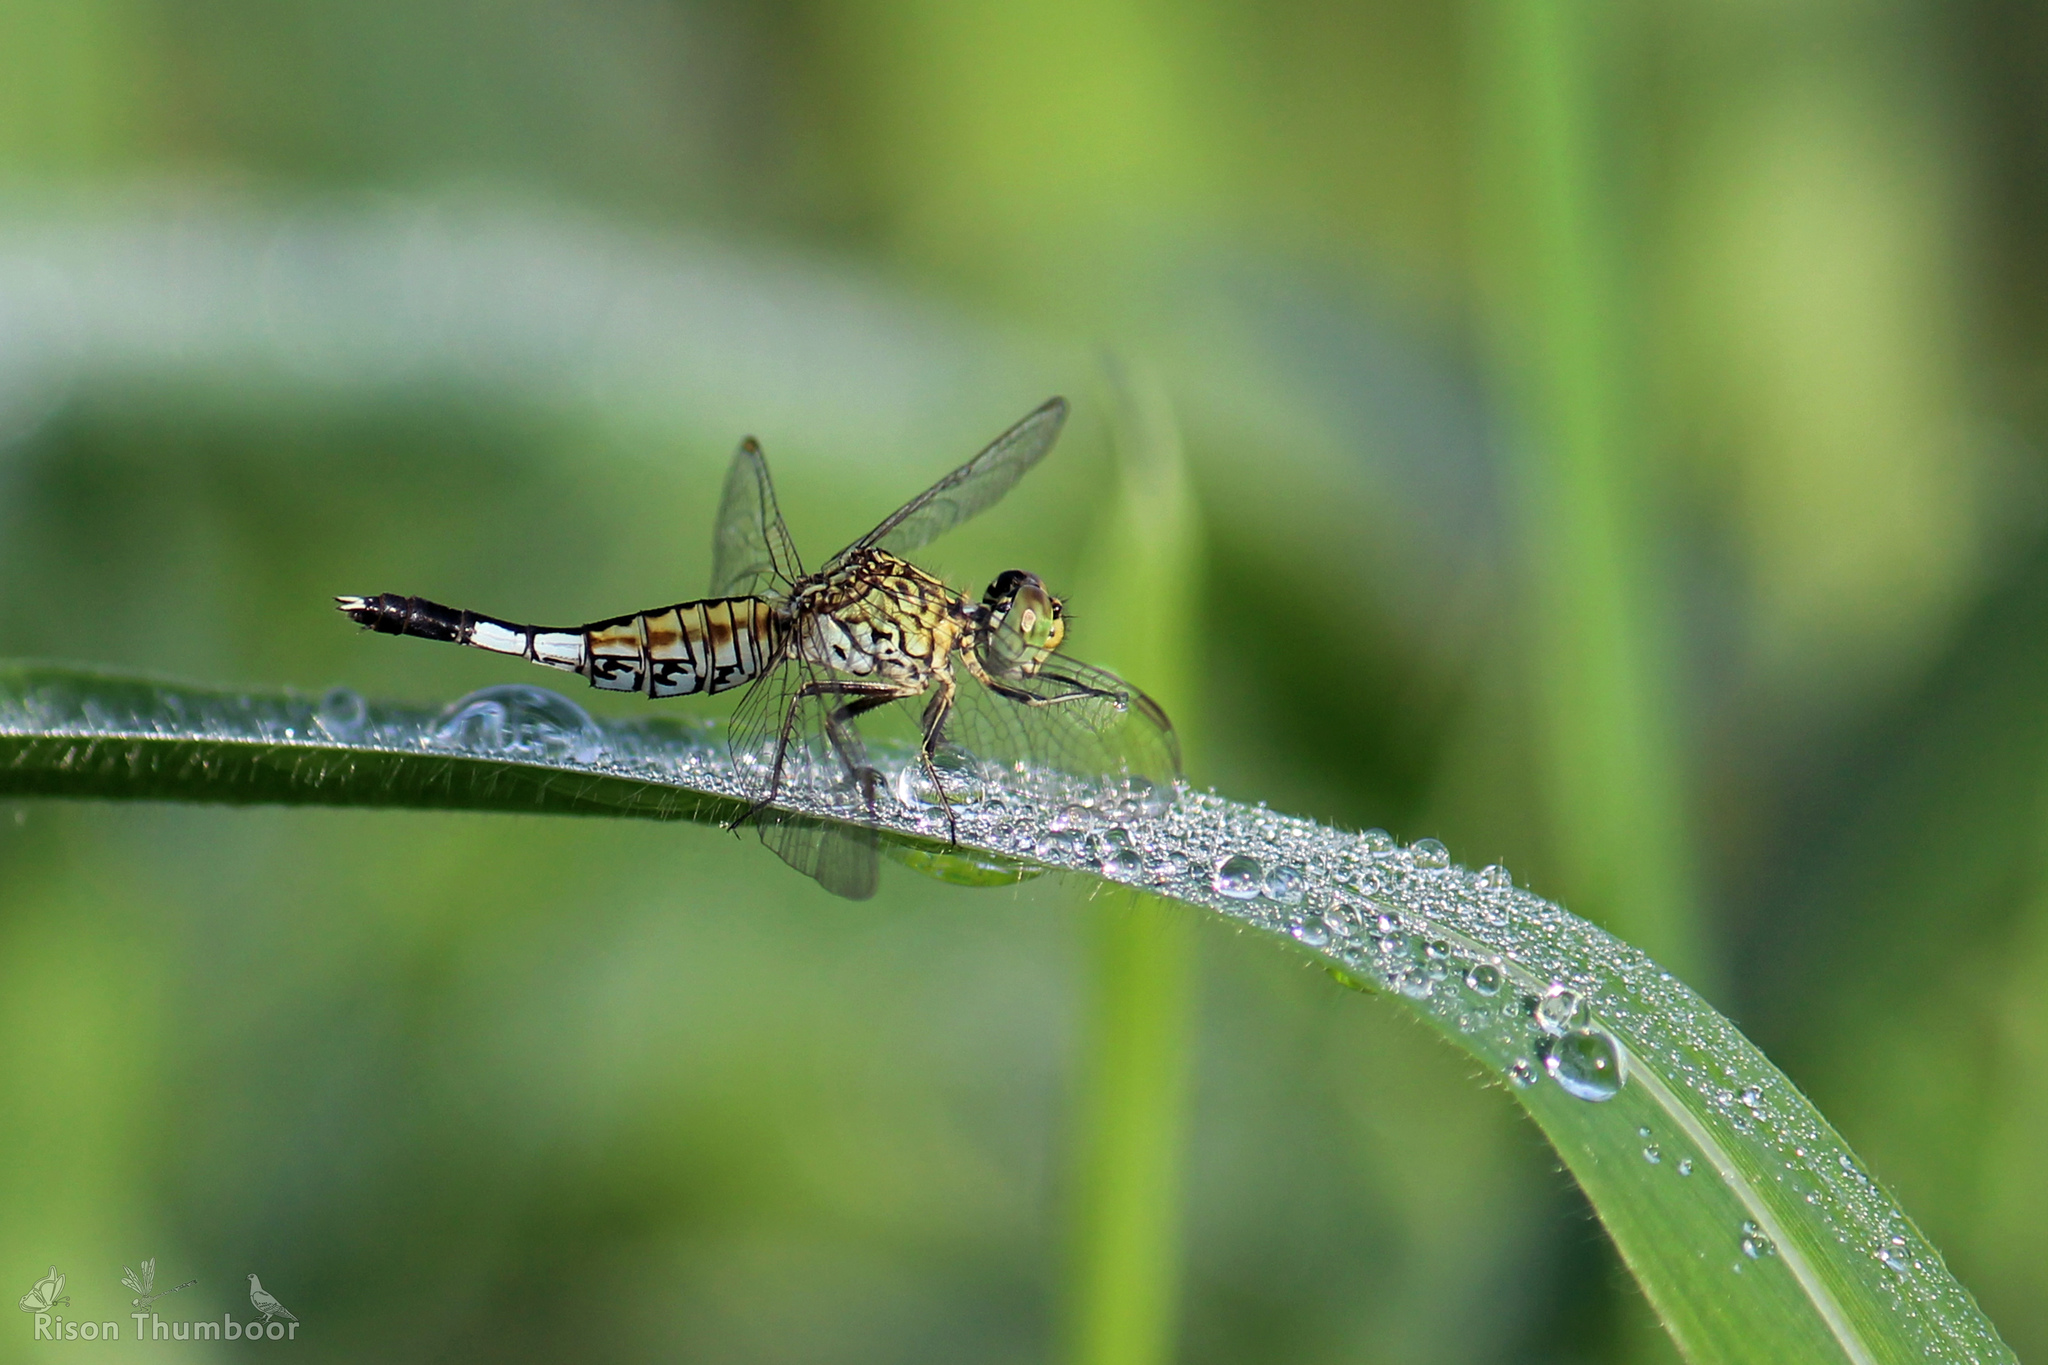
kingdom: Animalia
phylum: Arthropoda
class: Insecta
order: Odonata
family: Libellulidae
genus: Acisoma
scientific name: Acisoma panorpoides
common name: Asian pintail
